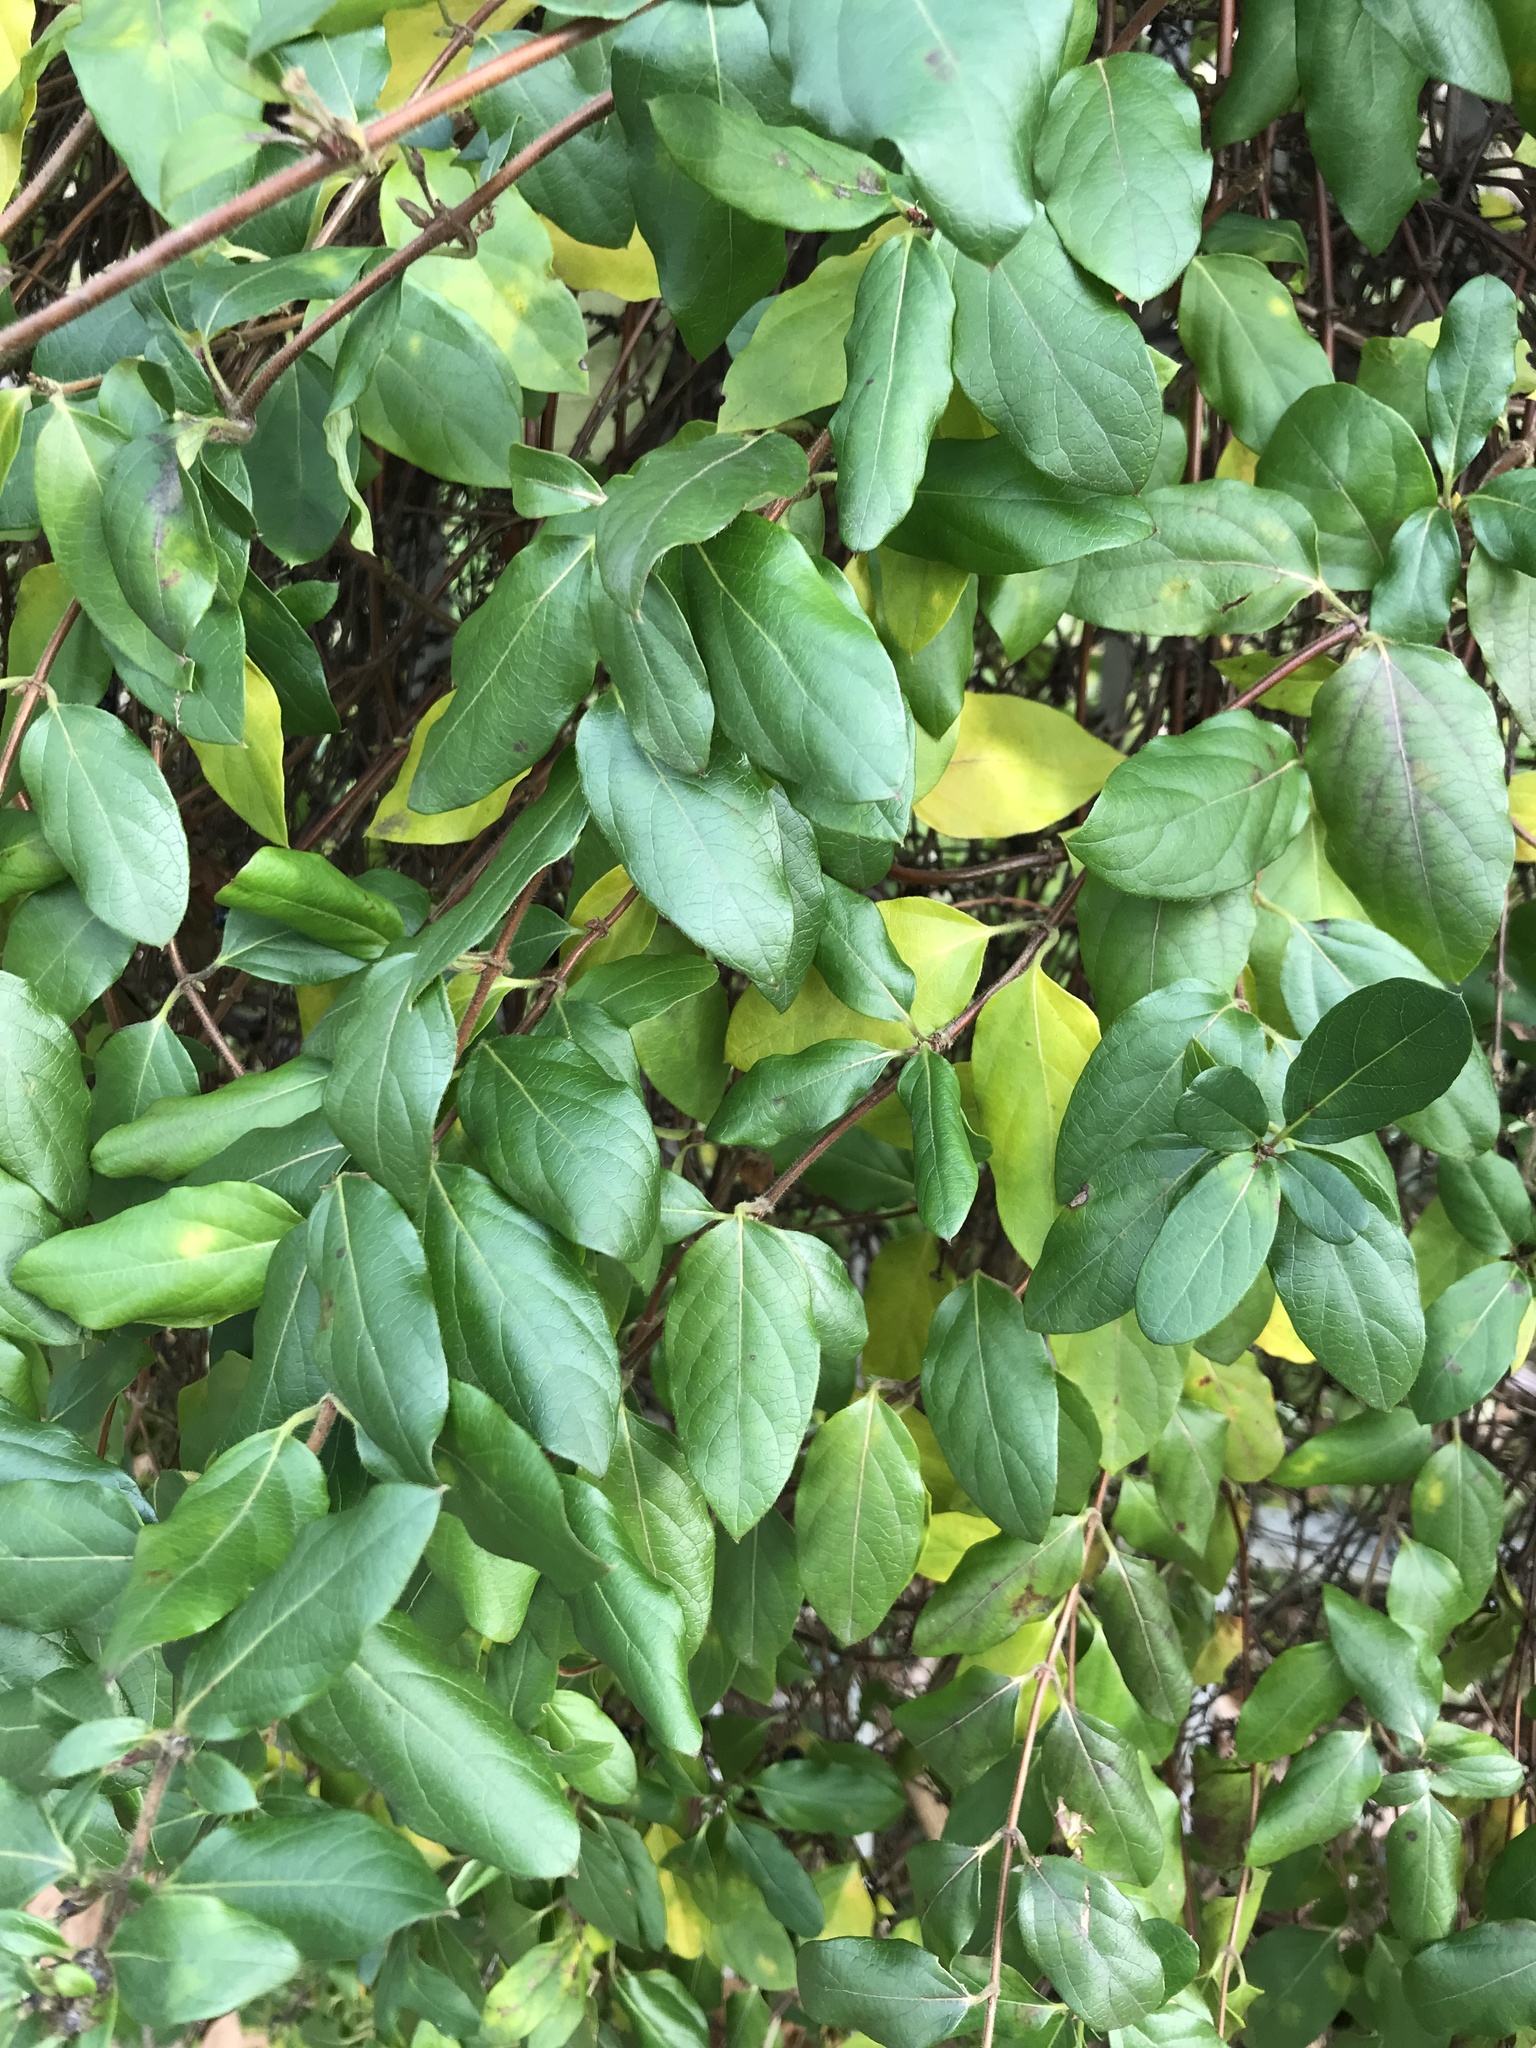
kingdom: Plantae
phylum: Tracheophyta
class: Magnoliopsida
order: Dipsacales
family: Caprifoliaceae
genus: Lonicera
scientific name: Lonicera japonica
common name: Japanese honeysuckle
